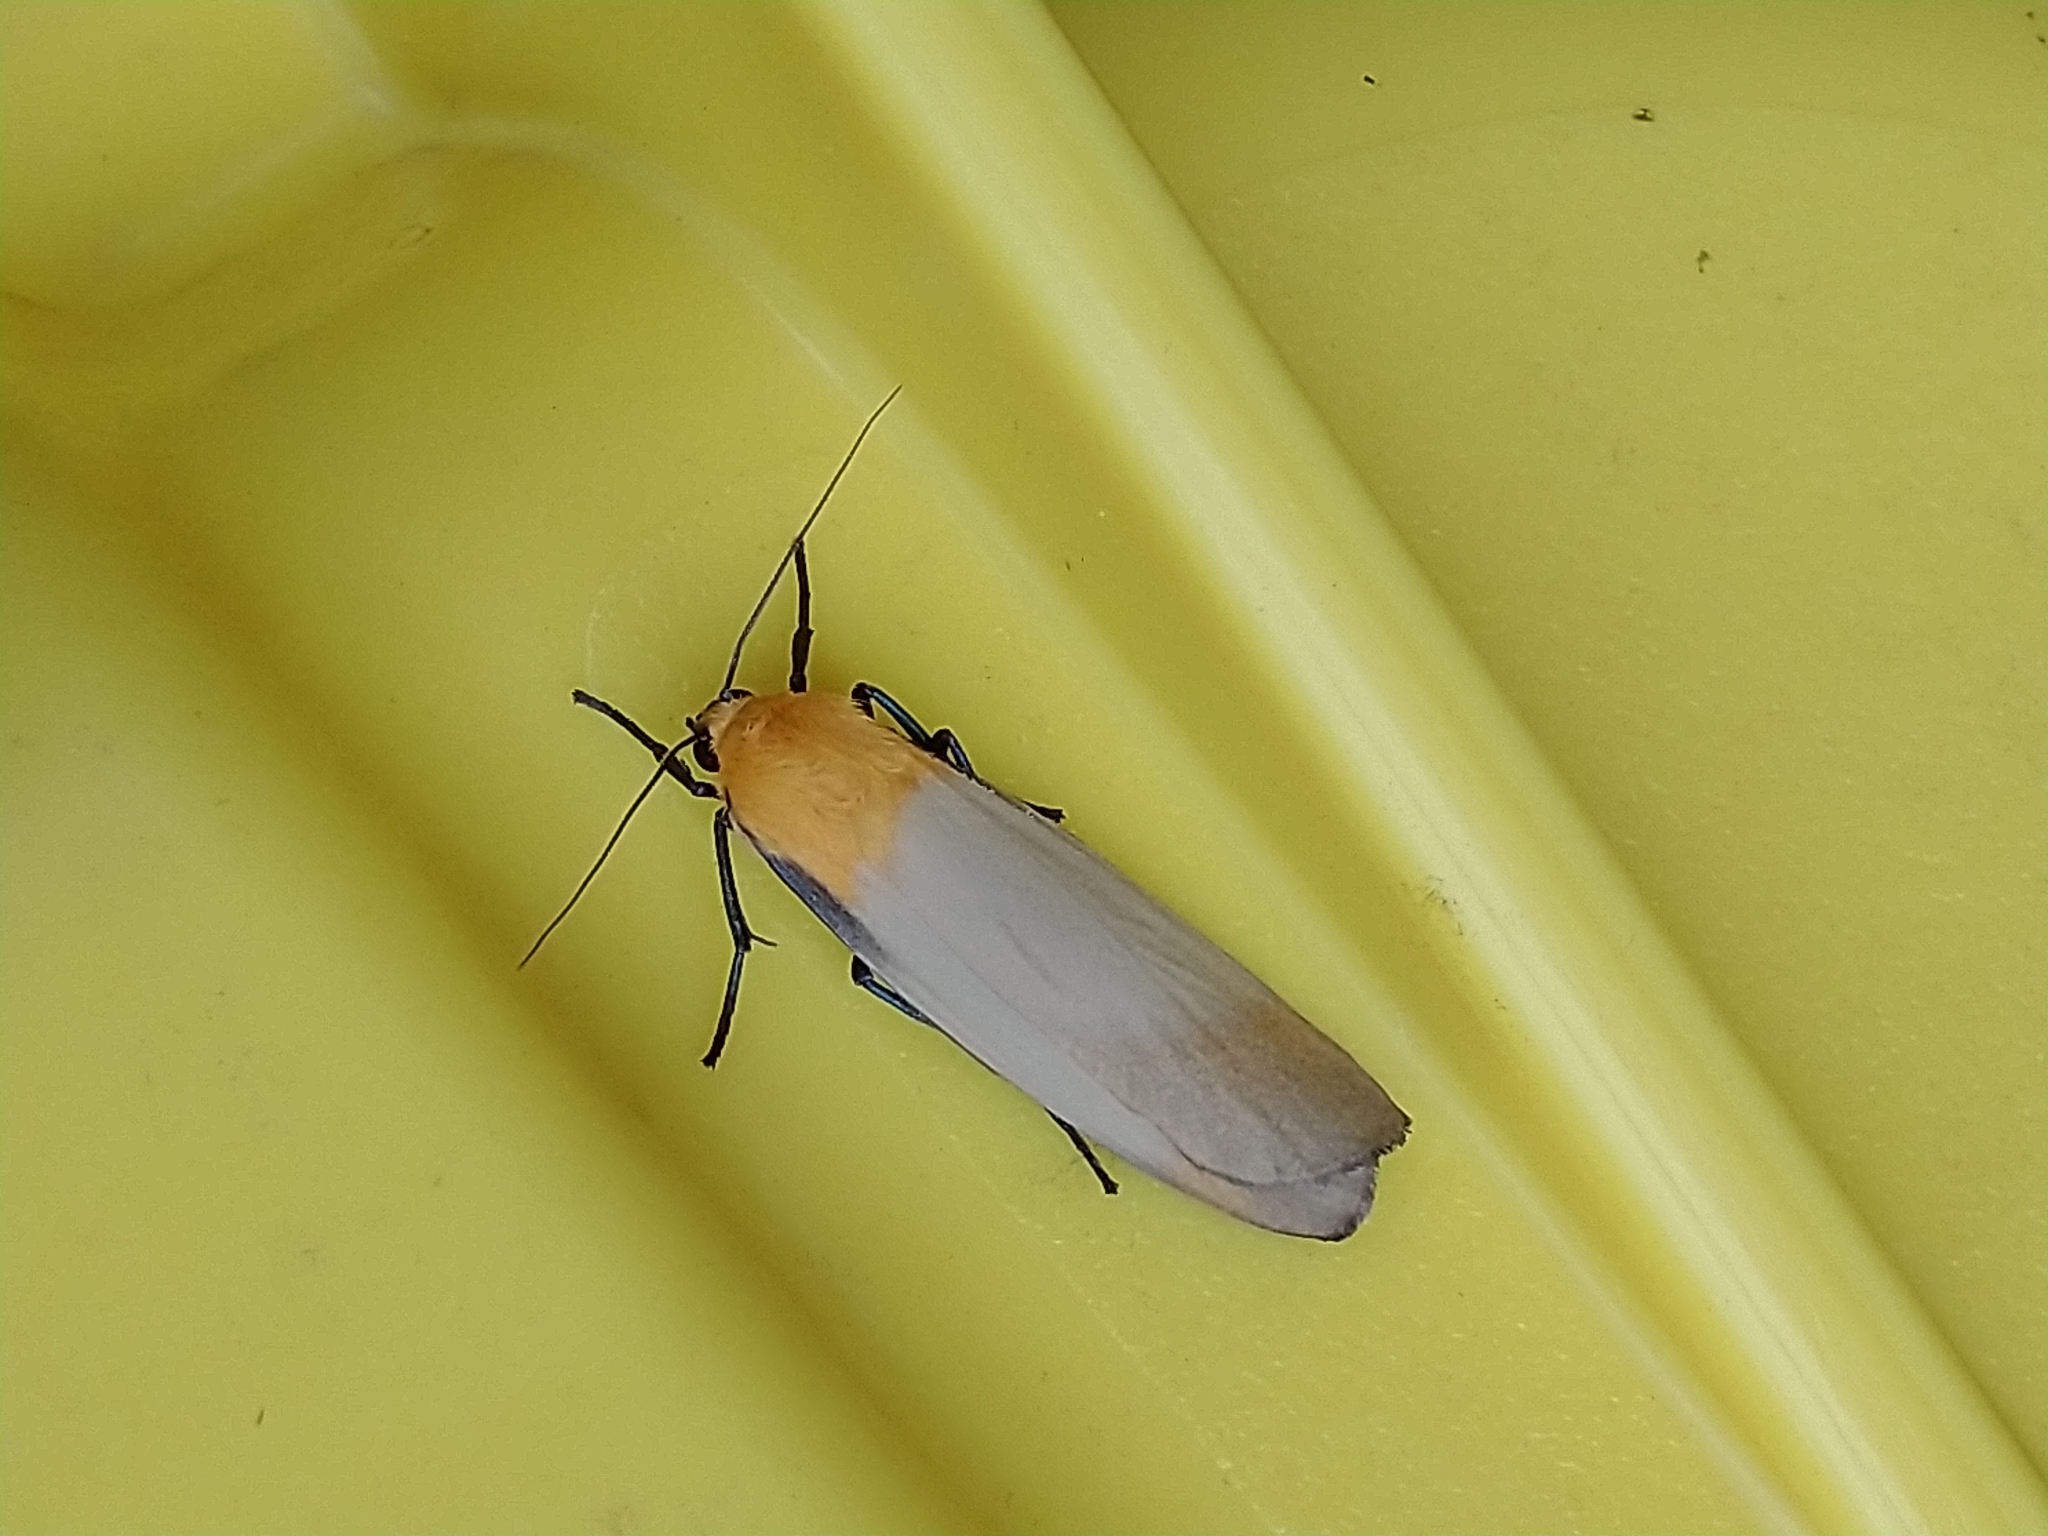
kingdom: Animalia
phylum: Arthropoda
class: Insecta
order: Lepidoptera
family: Erebidae
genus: Lithosia
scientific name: Lithosia quadra
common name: Four-spotted footman
